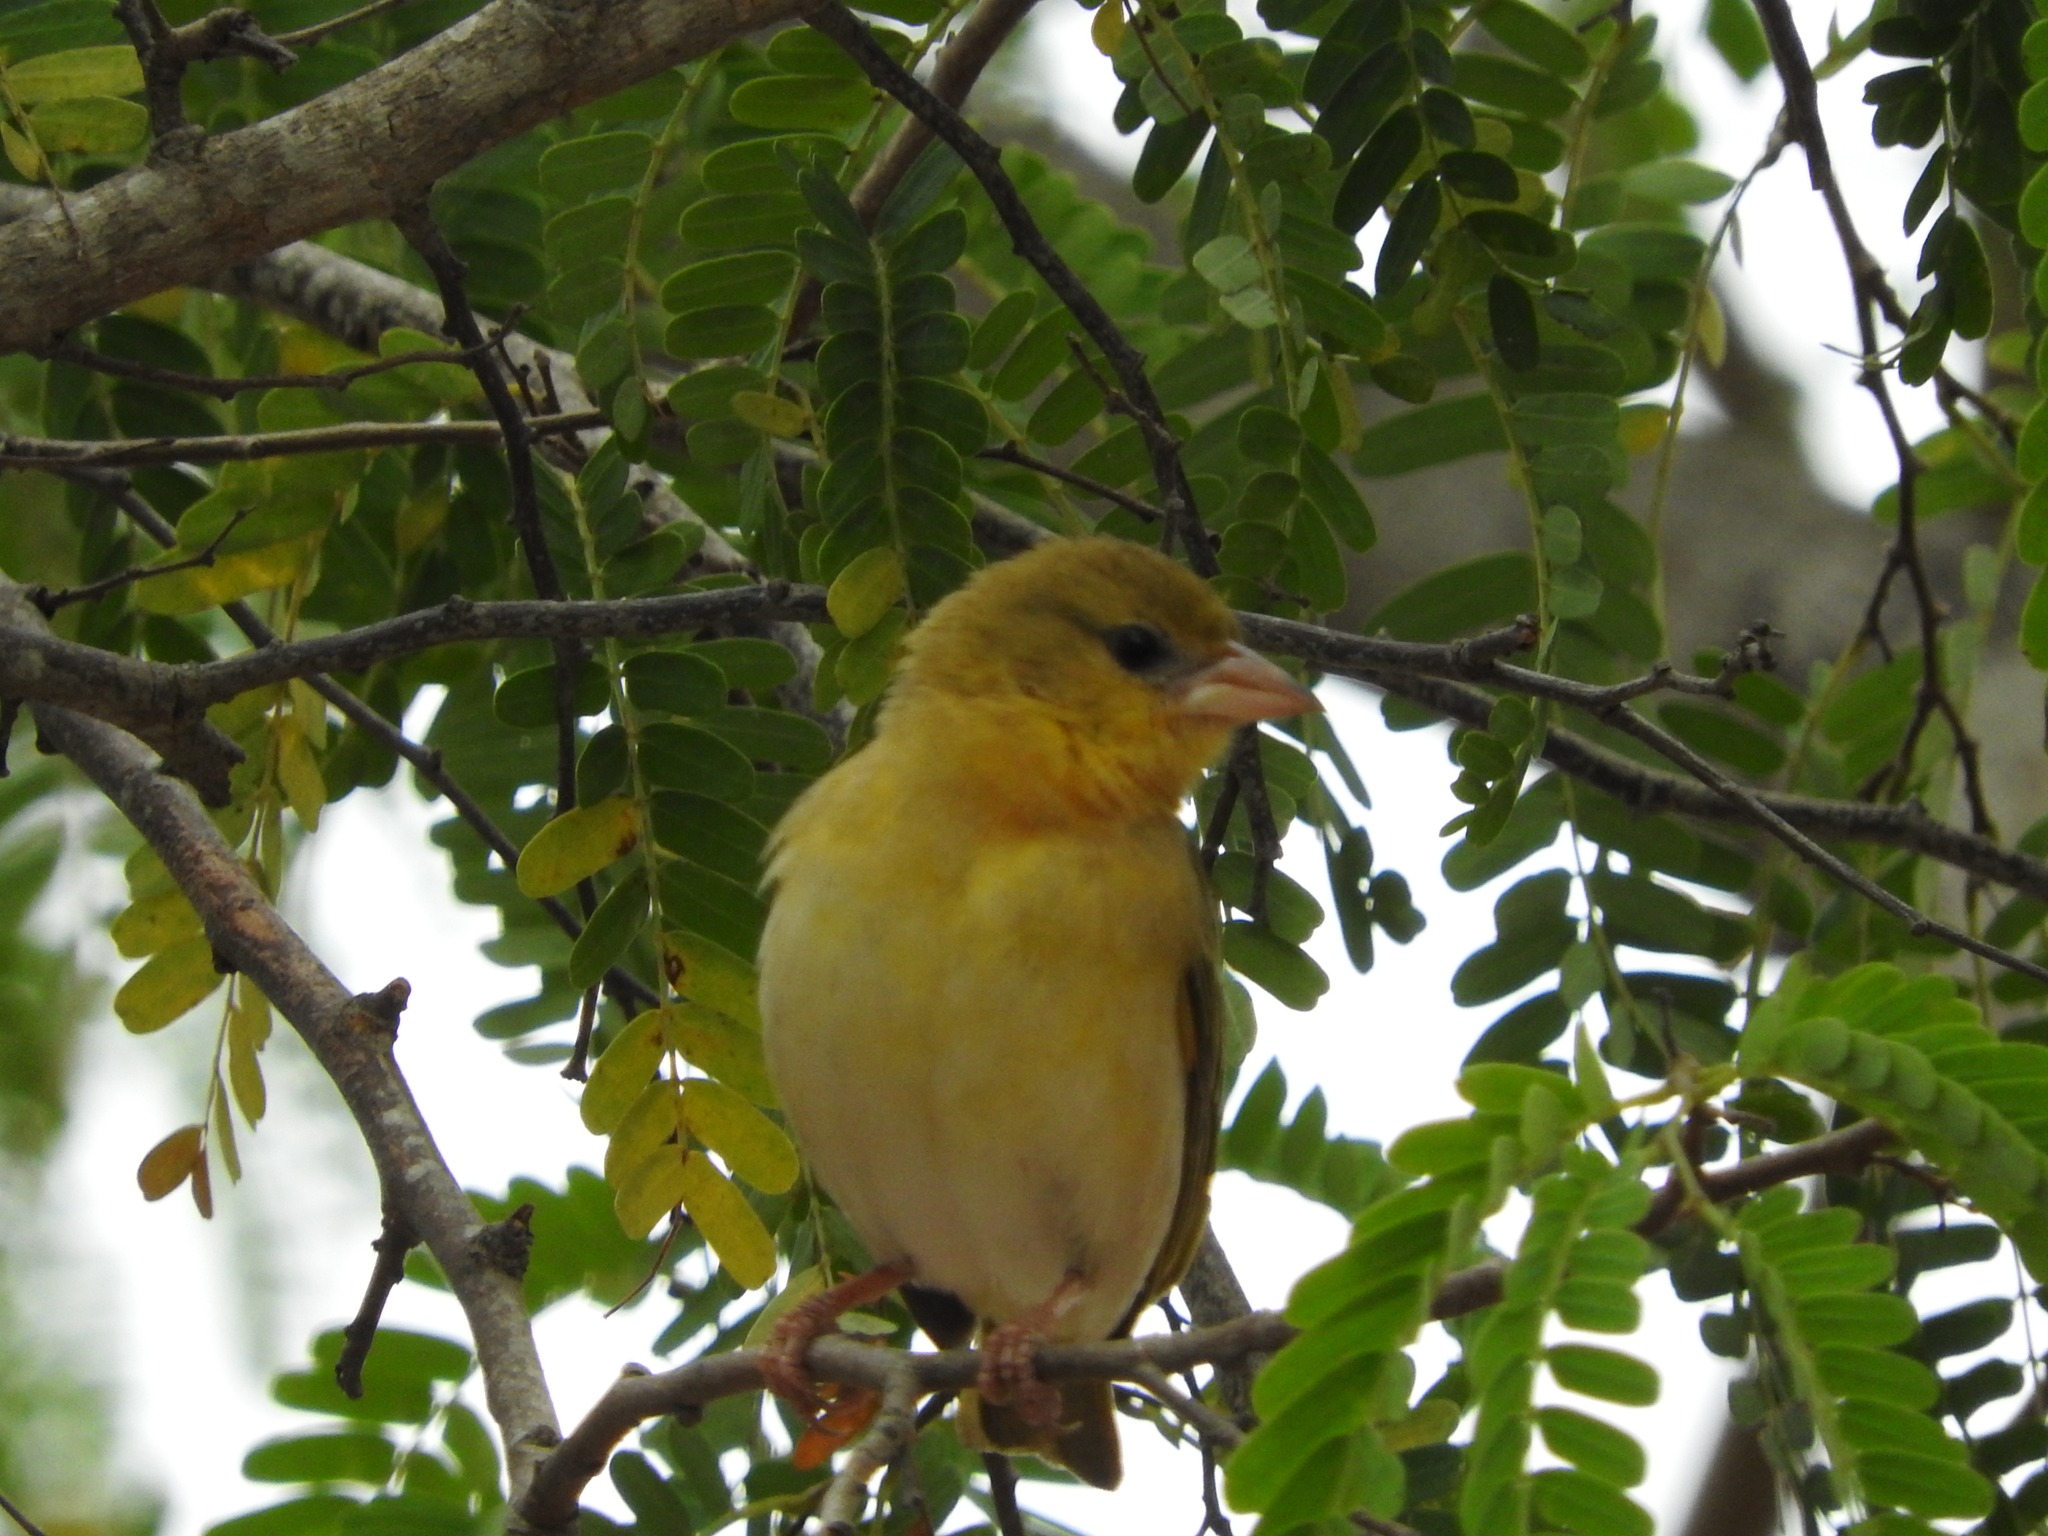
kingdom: Animalia
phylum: Chordata
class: Aves
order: Passeriformes
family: Ploceidae
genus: Ploceus
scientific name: Ploceus velatus
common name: Southern masked weaver
